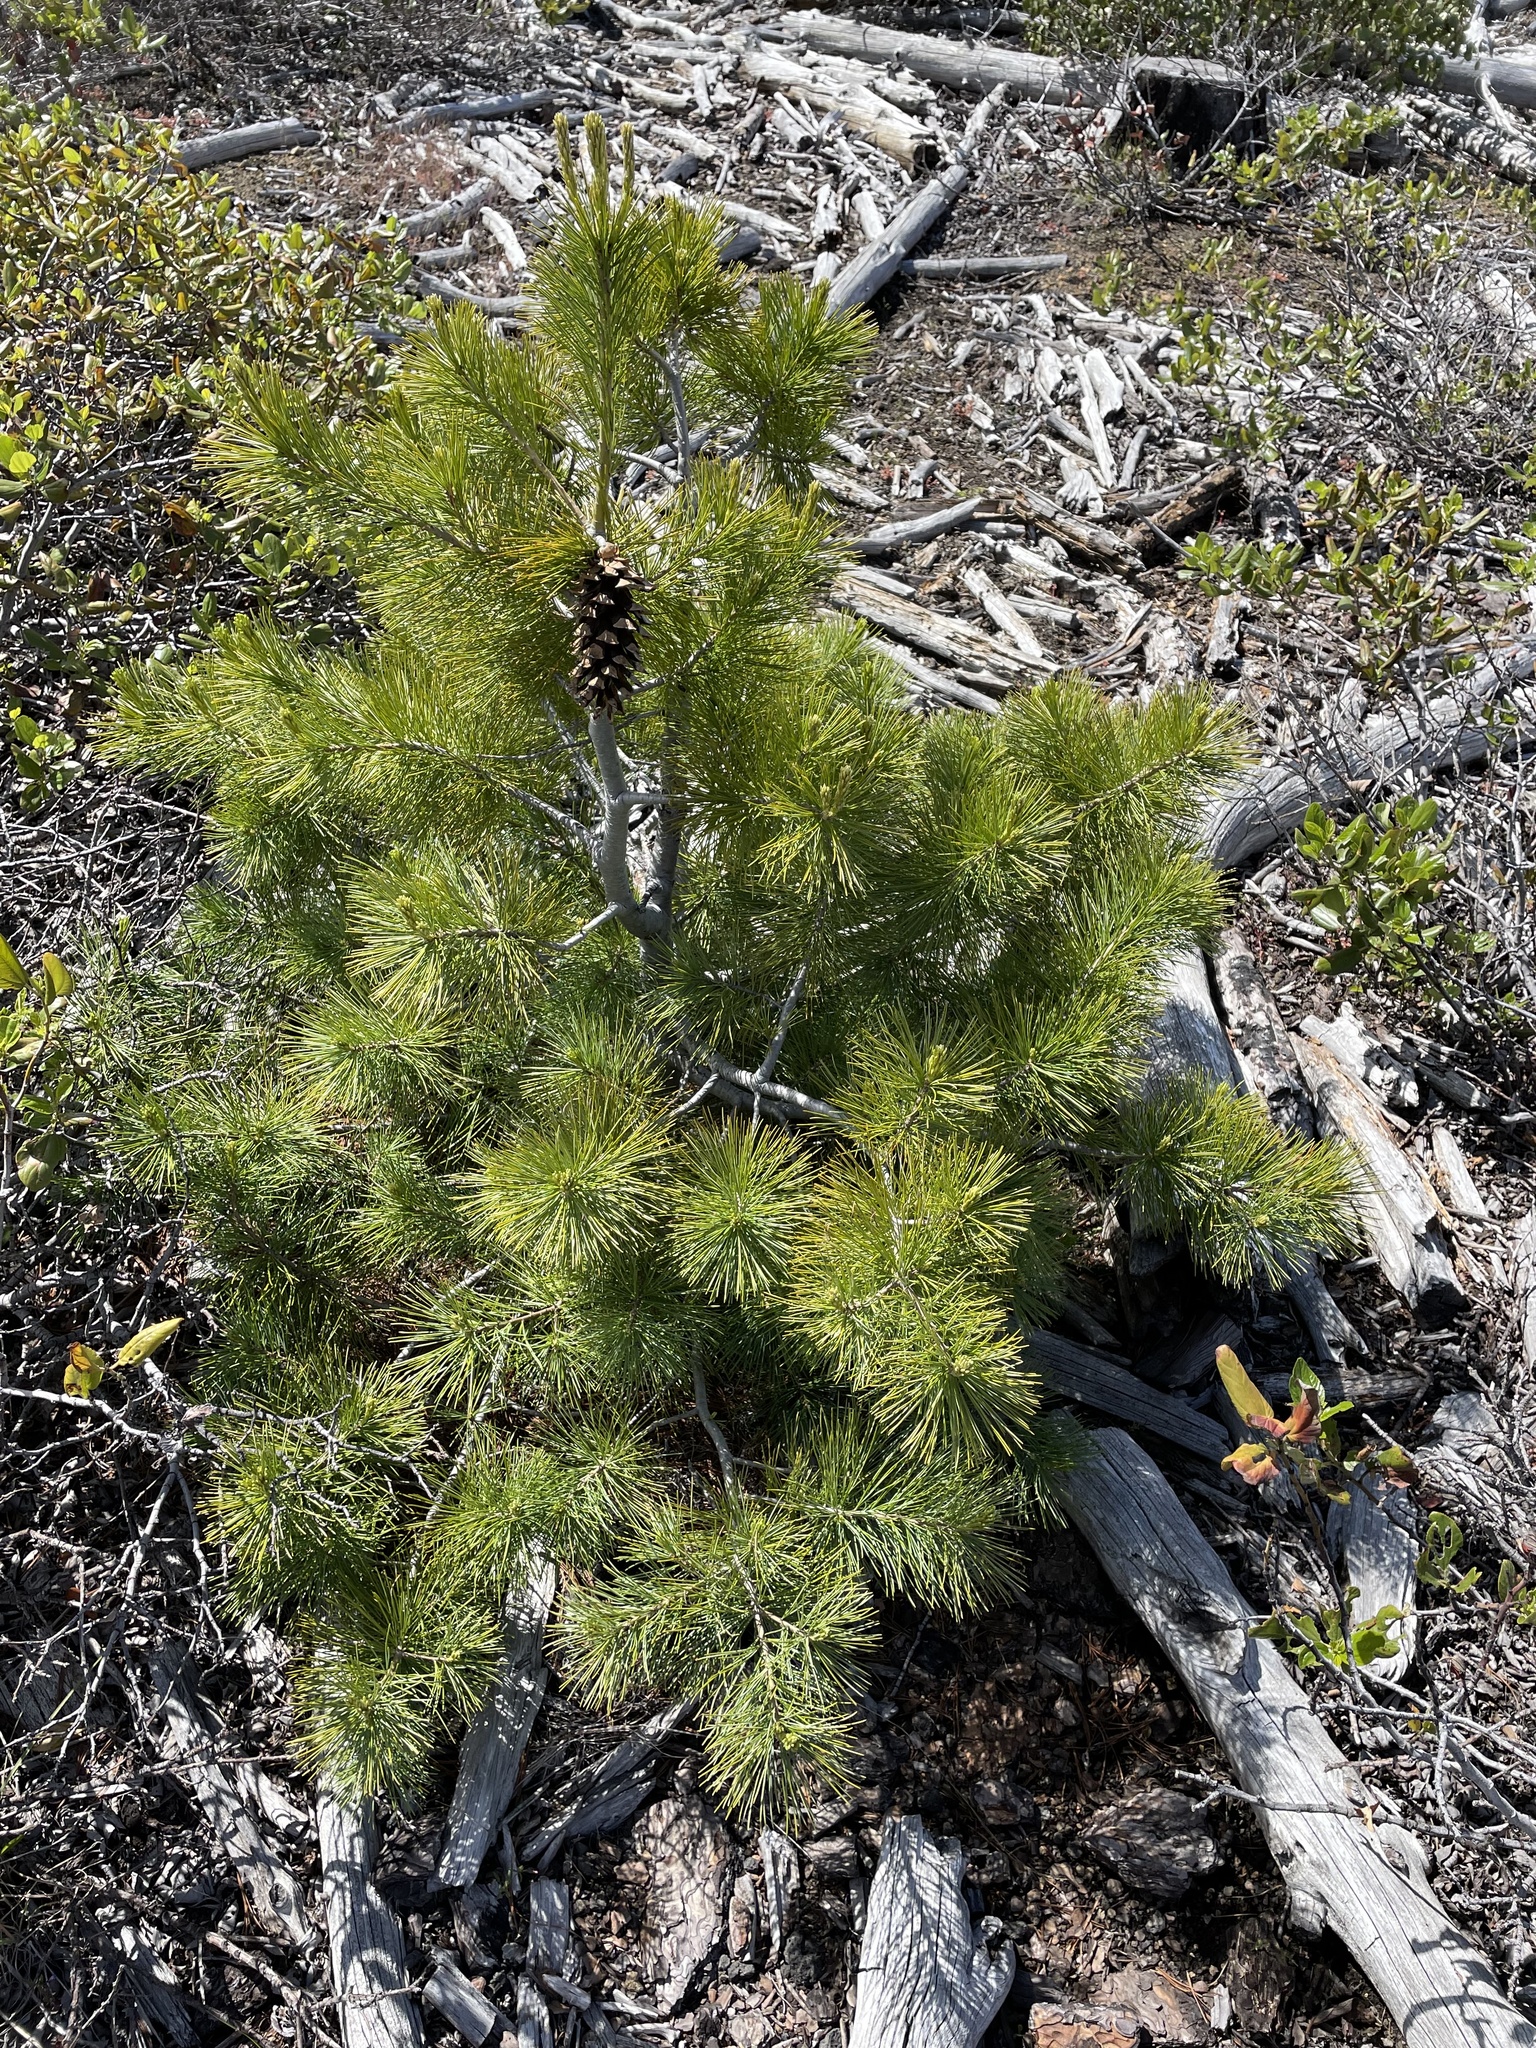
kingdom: Plantae
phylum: Tracheophyta
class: Pinopsida
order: Pinales
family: Pinaceae
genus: Pinus
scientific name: Pinus monticola
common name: Western white pine
